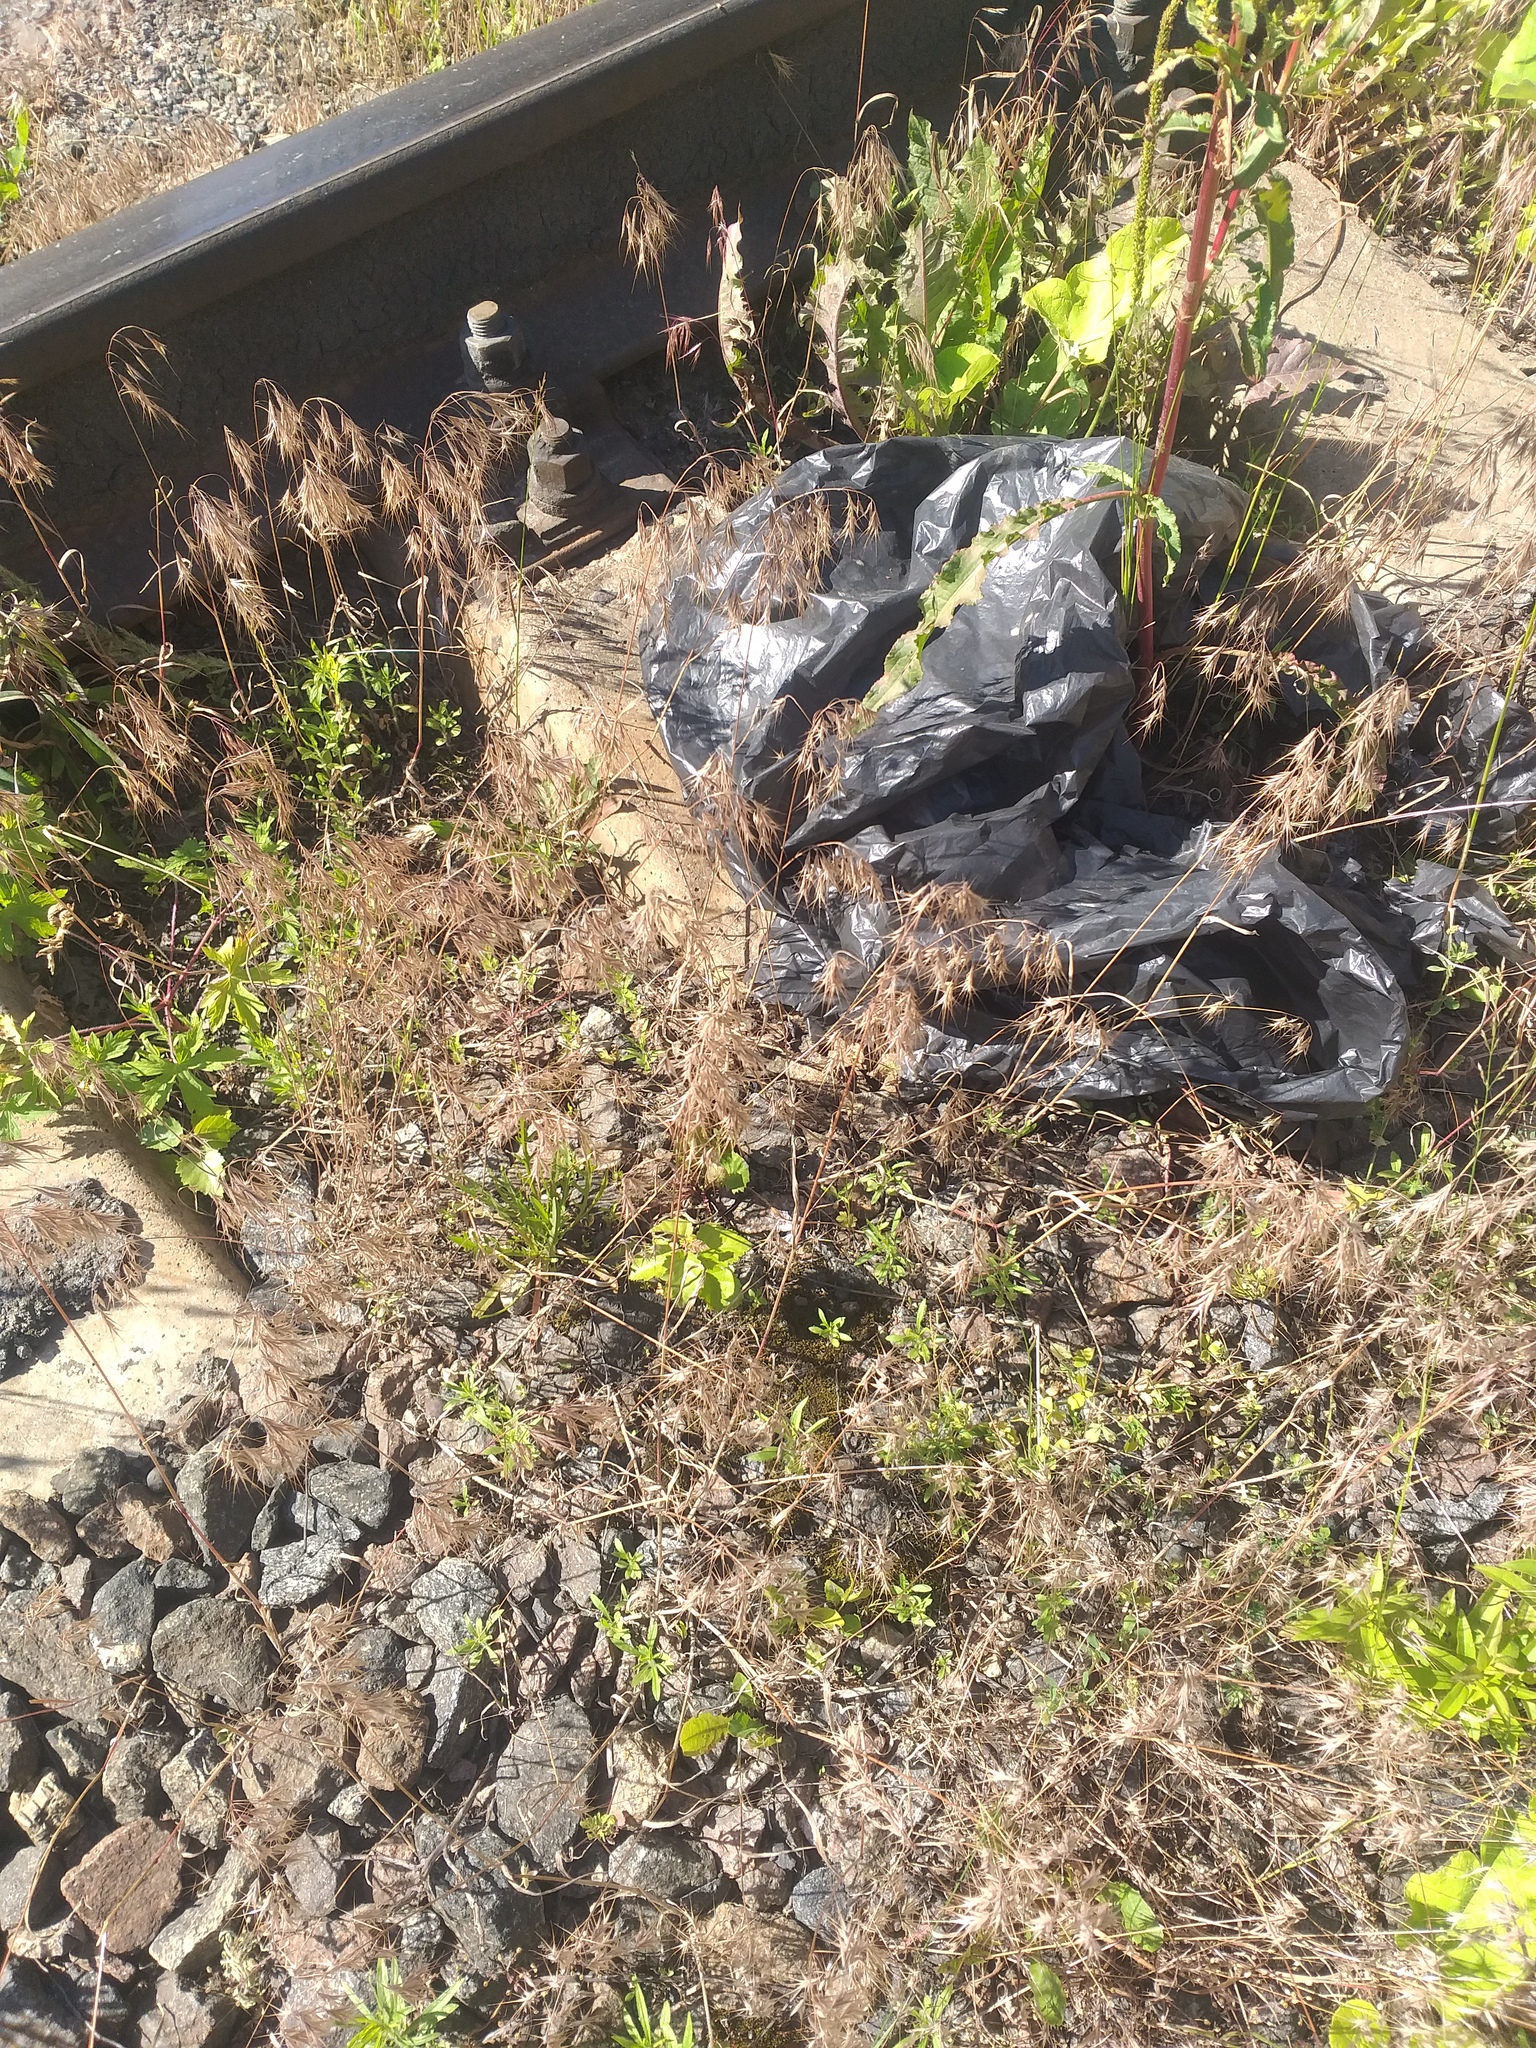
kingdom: Plantae
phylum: Tracheophyta
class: Liliopsida
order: Poales
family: Poaceae
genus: Bromus
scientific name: Bromus tectorum
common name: Cheatgrass
